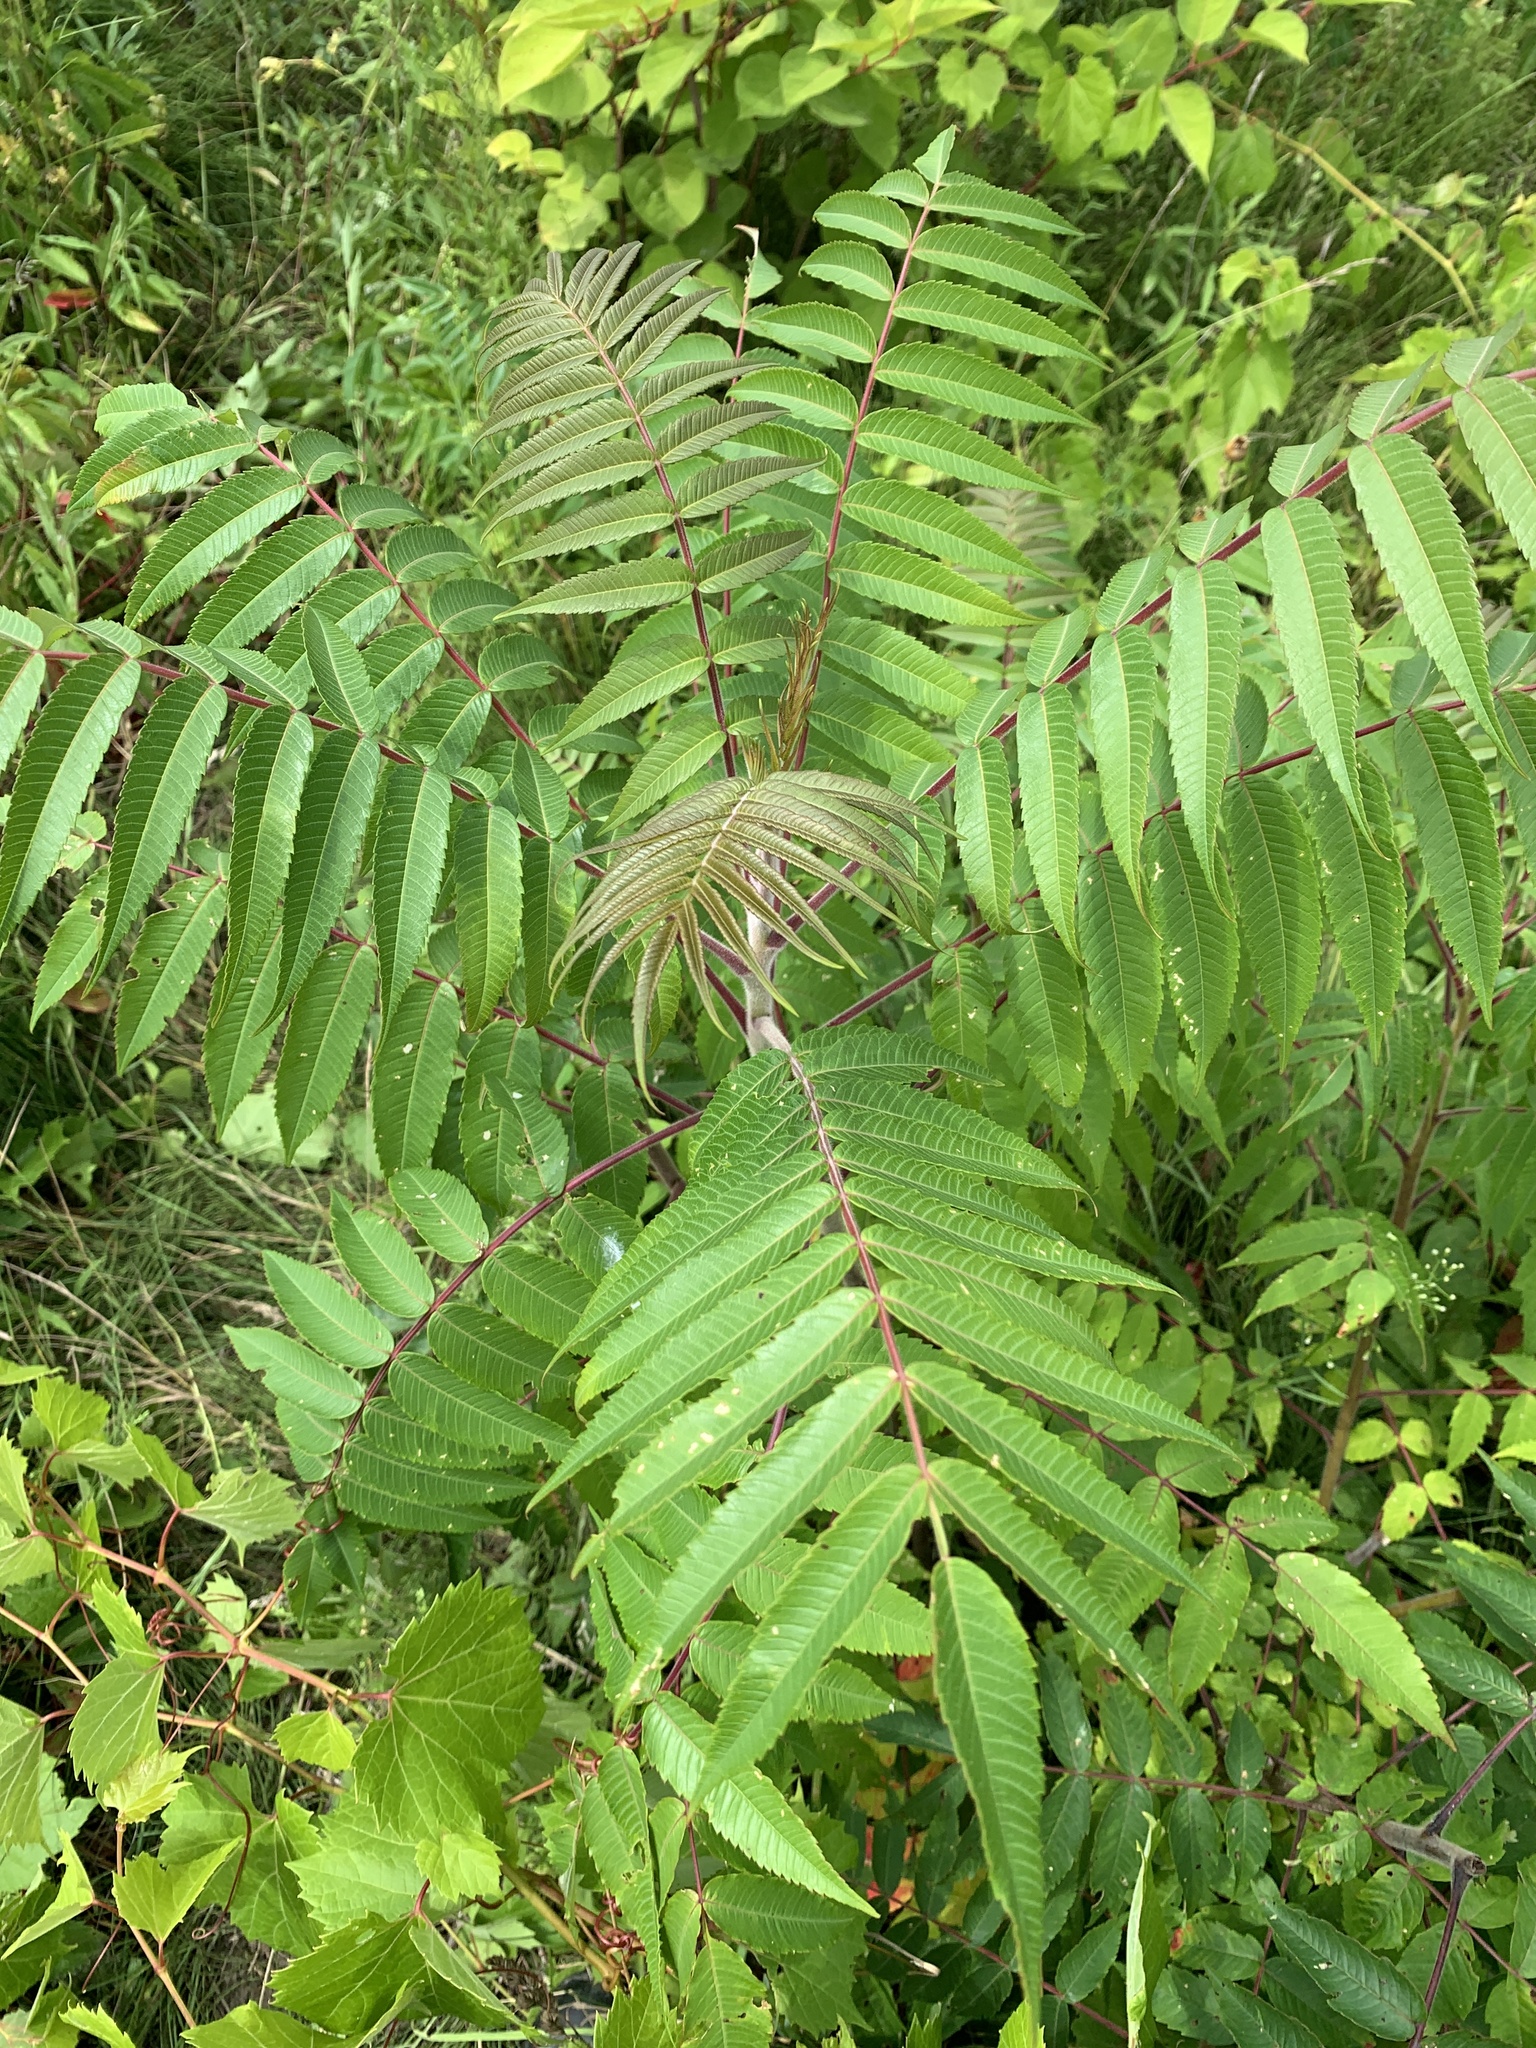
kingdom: Plantae
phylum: Tracheophyta
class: Magnoliopsida
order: Sapindales
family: Anacardiaceae
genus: Rhus
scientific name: Rhus typhina
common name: Staghorn sumac
